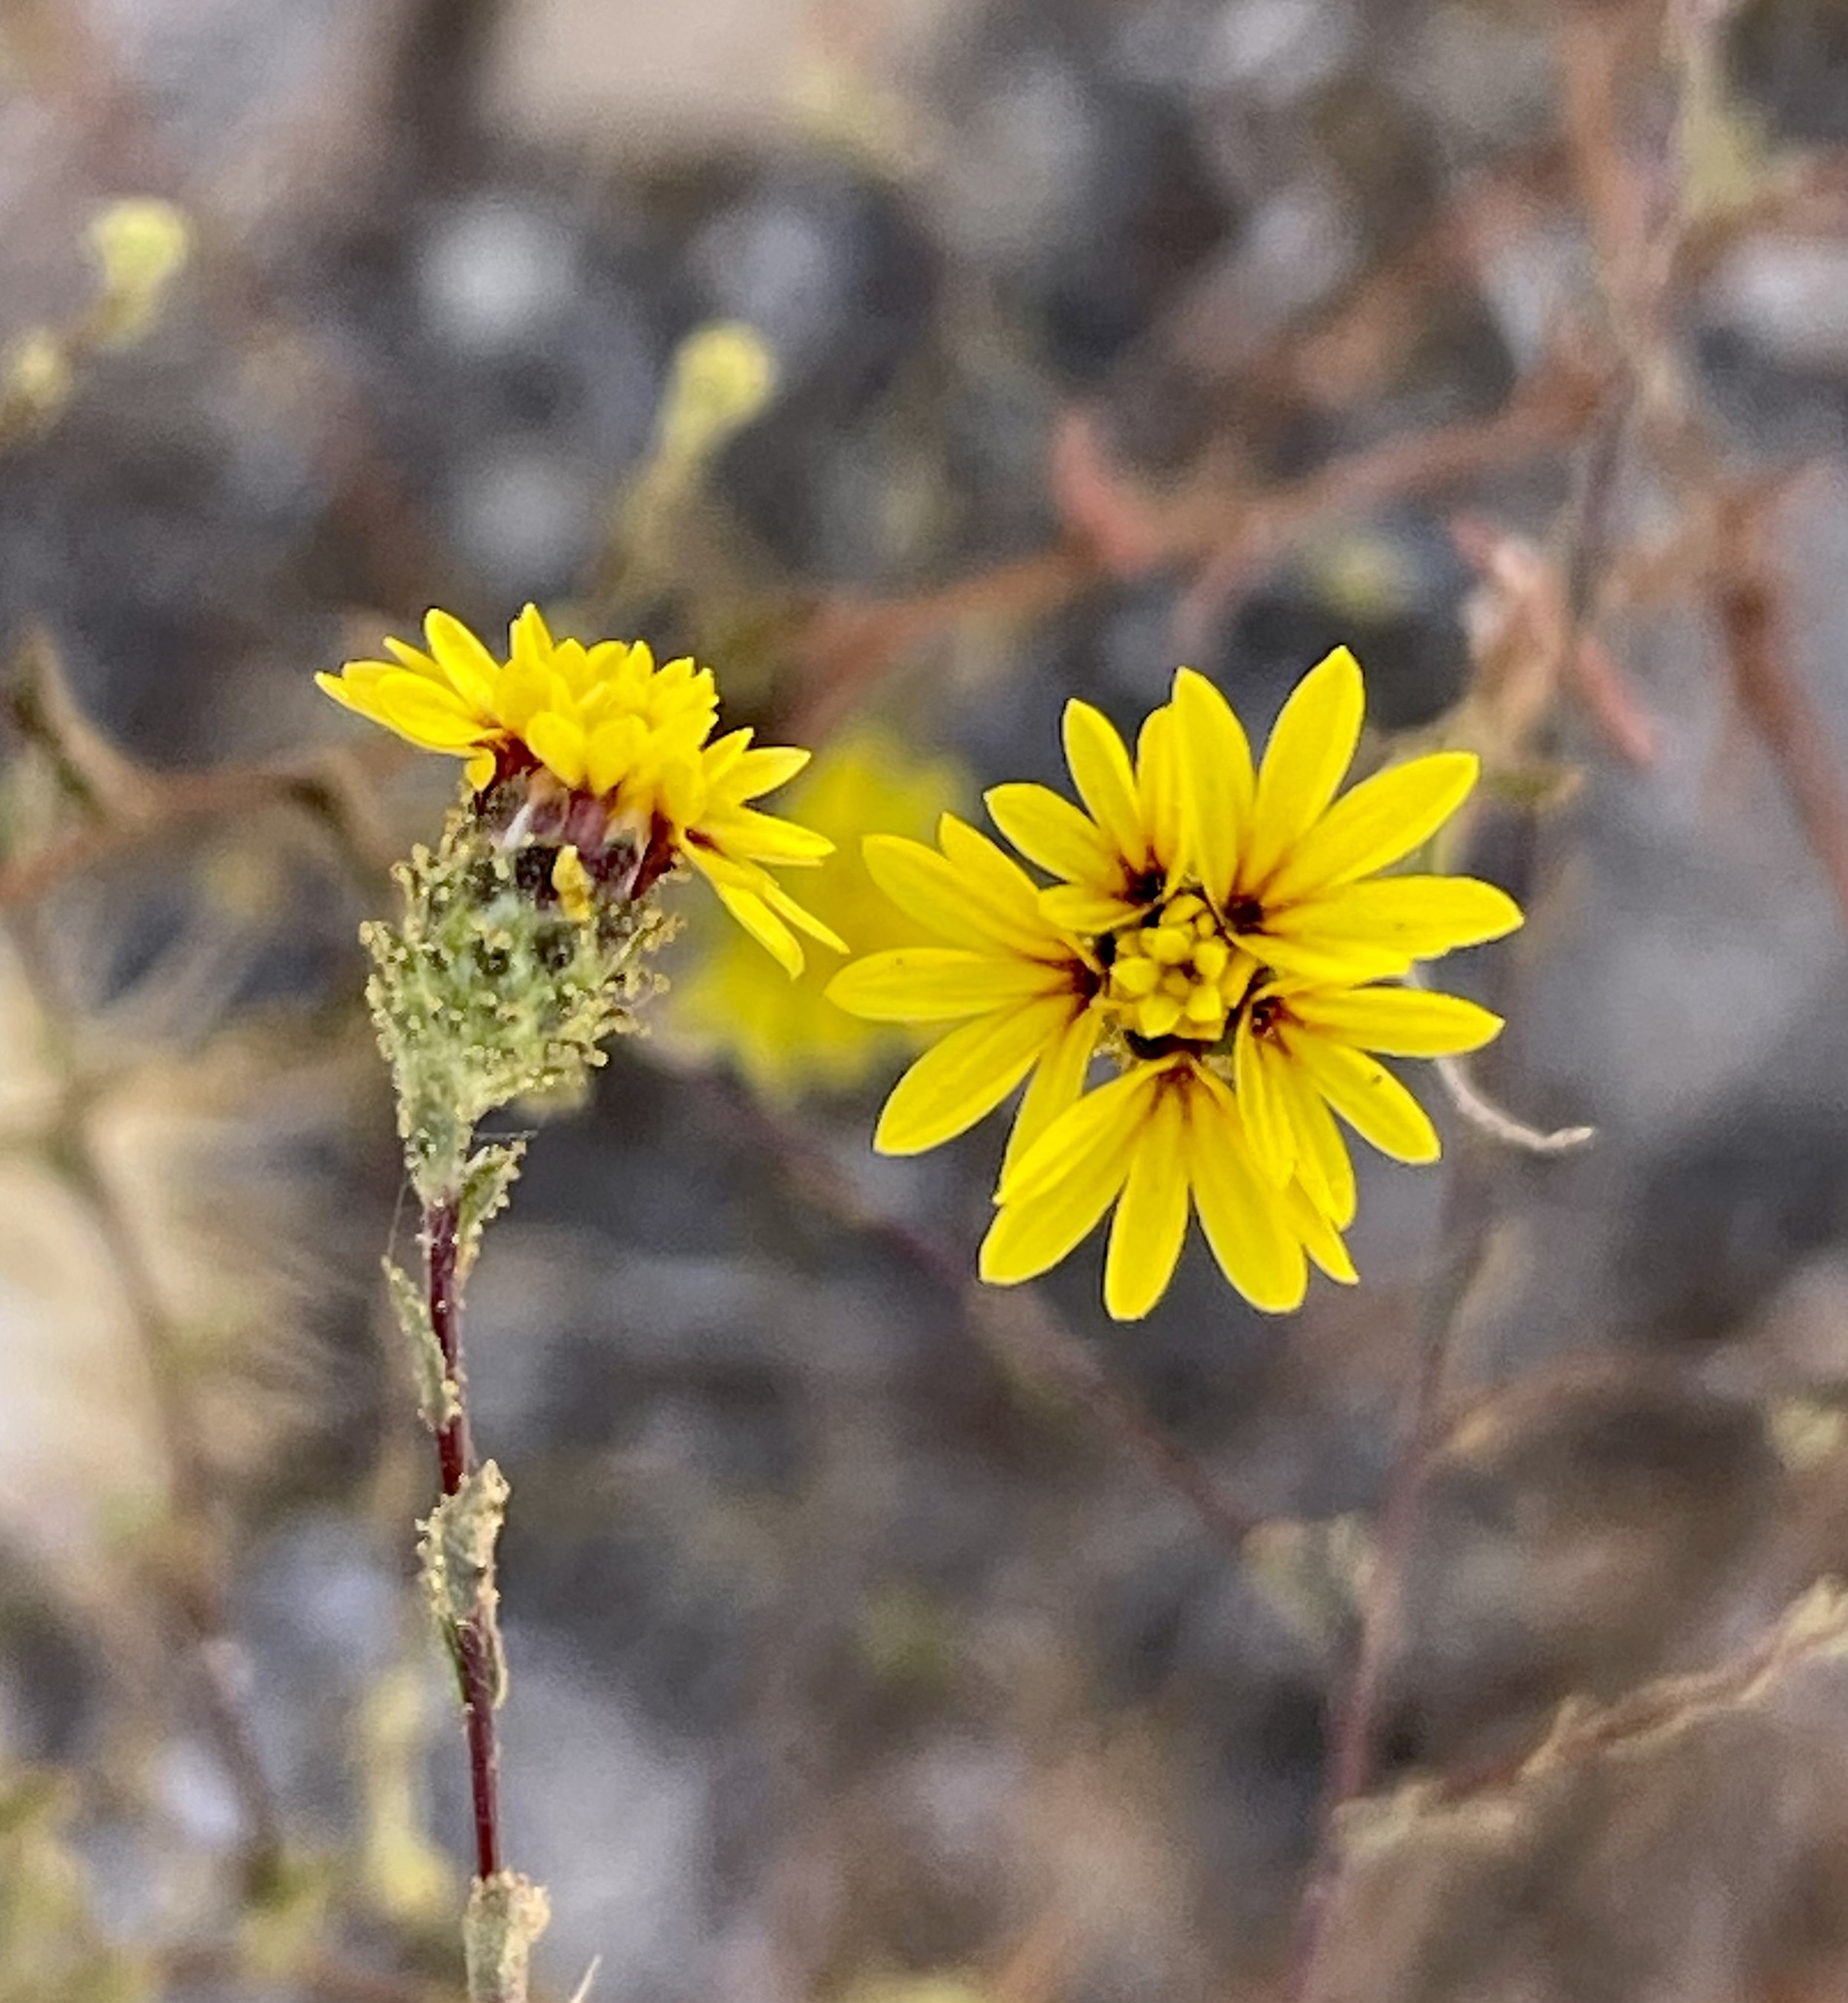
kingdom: Plantae
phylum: Tracheophyta
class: Magnoliopsida
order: Asterales
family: Asteraceae
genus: Lessingia
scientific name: Lessingia pectinata
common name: Valley lessingia
